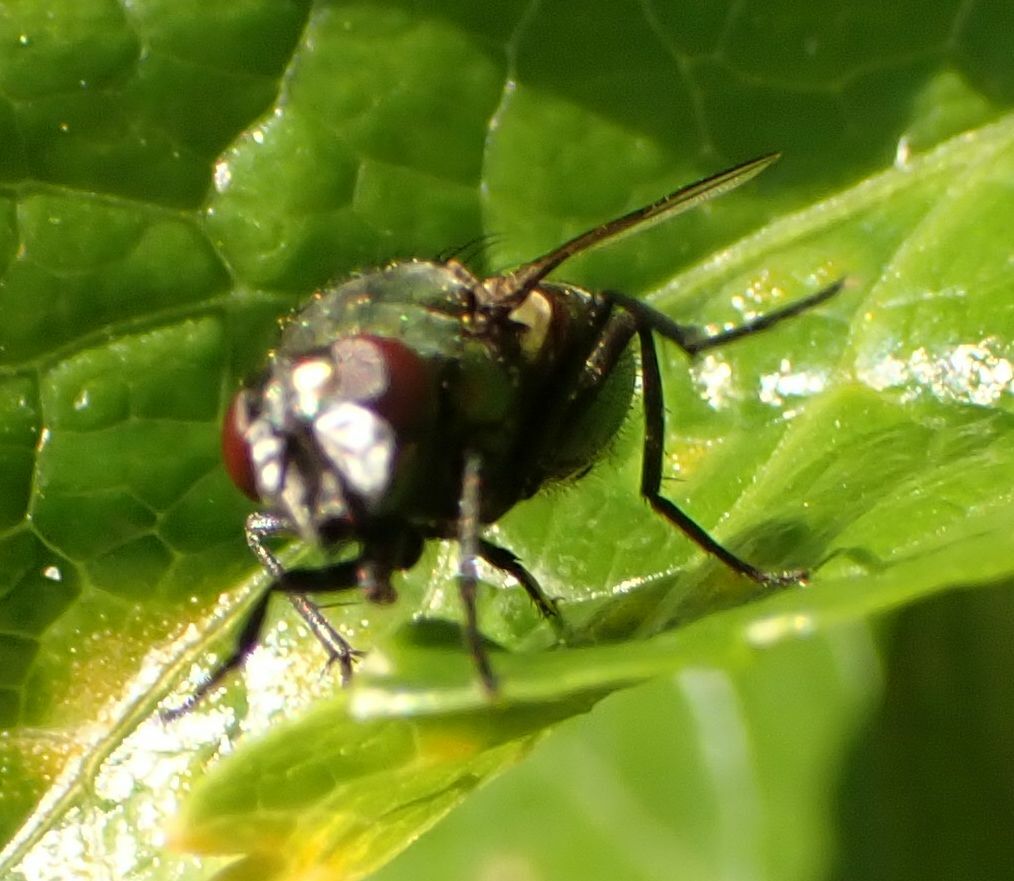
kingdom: Animalia
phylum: Arthropoda
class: Insecta
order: Diptera
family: Muscidae
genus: Neomyia
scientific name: Neomyia cornicina
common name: House fly
